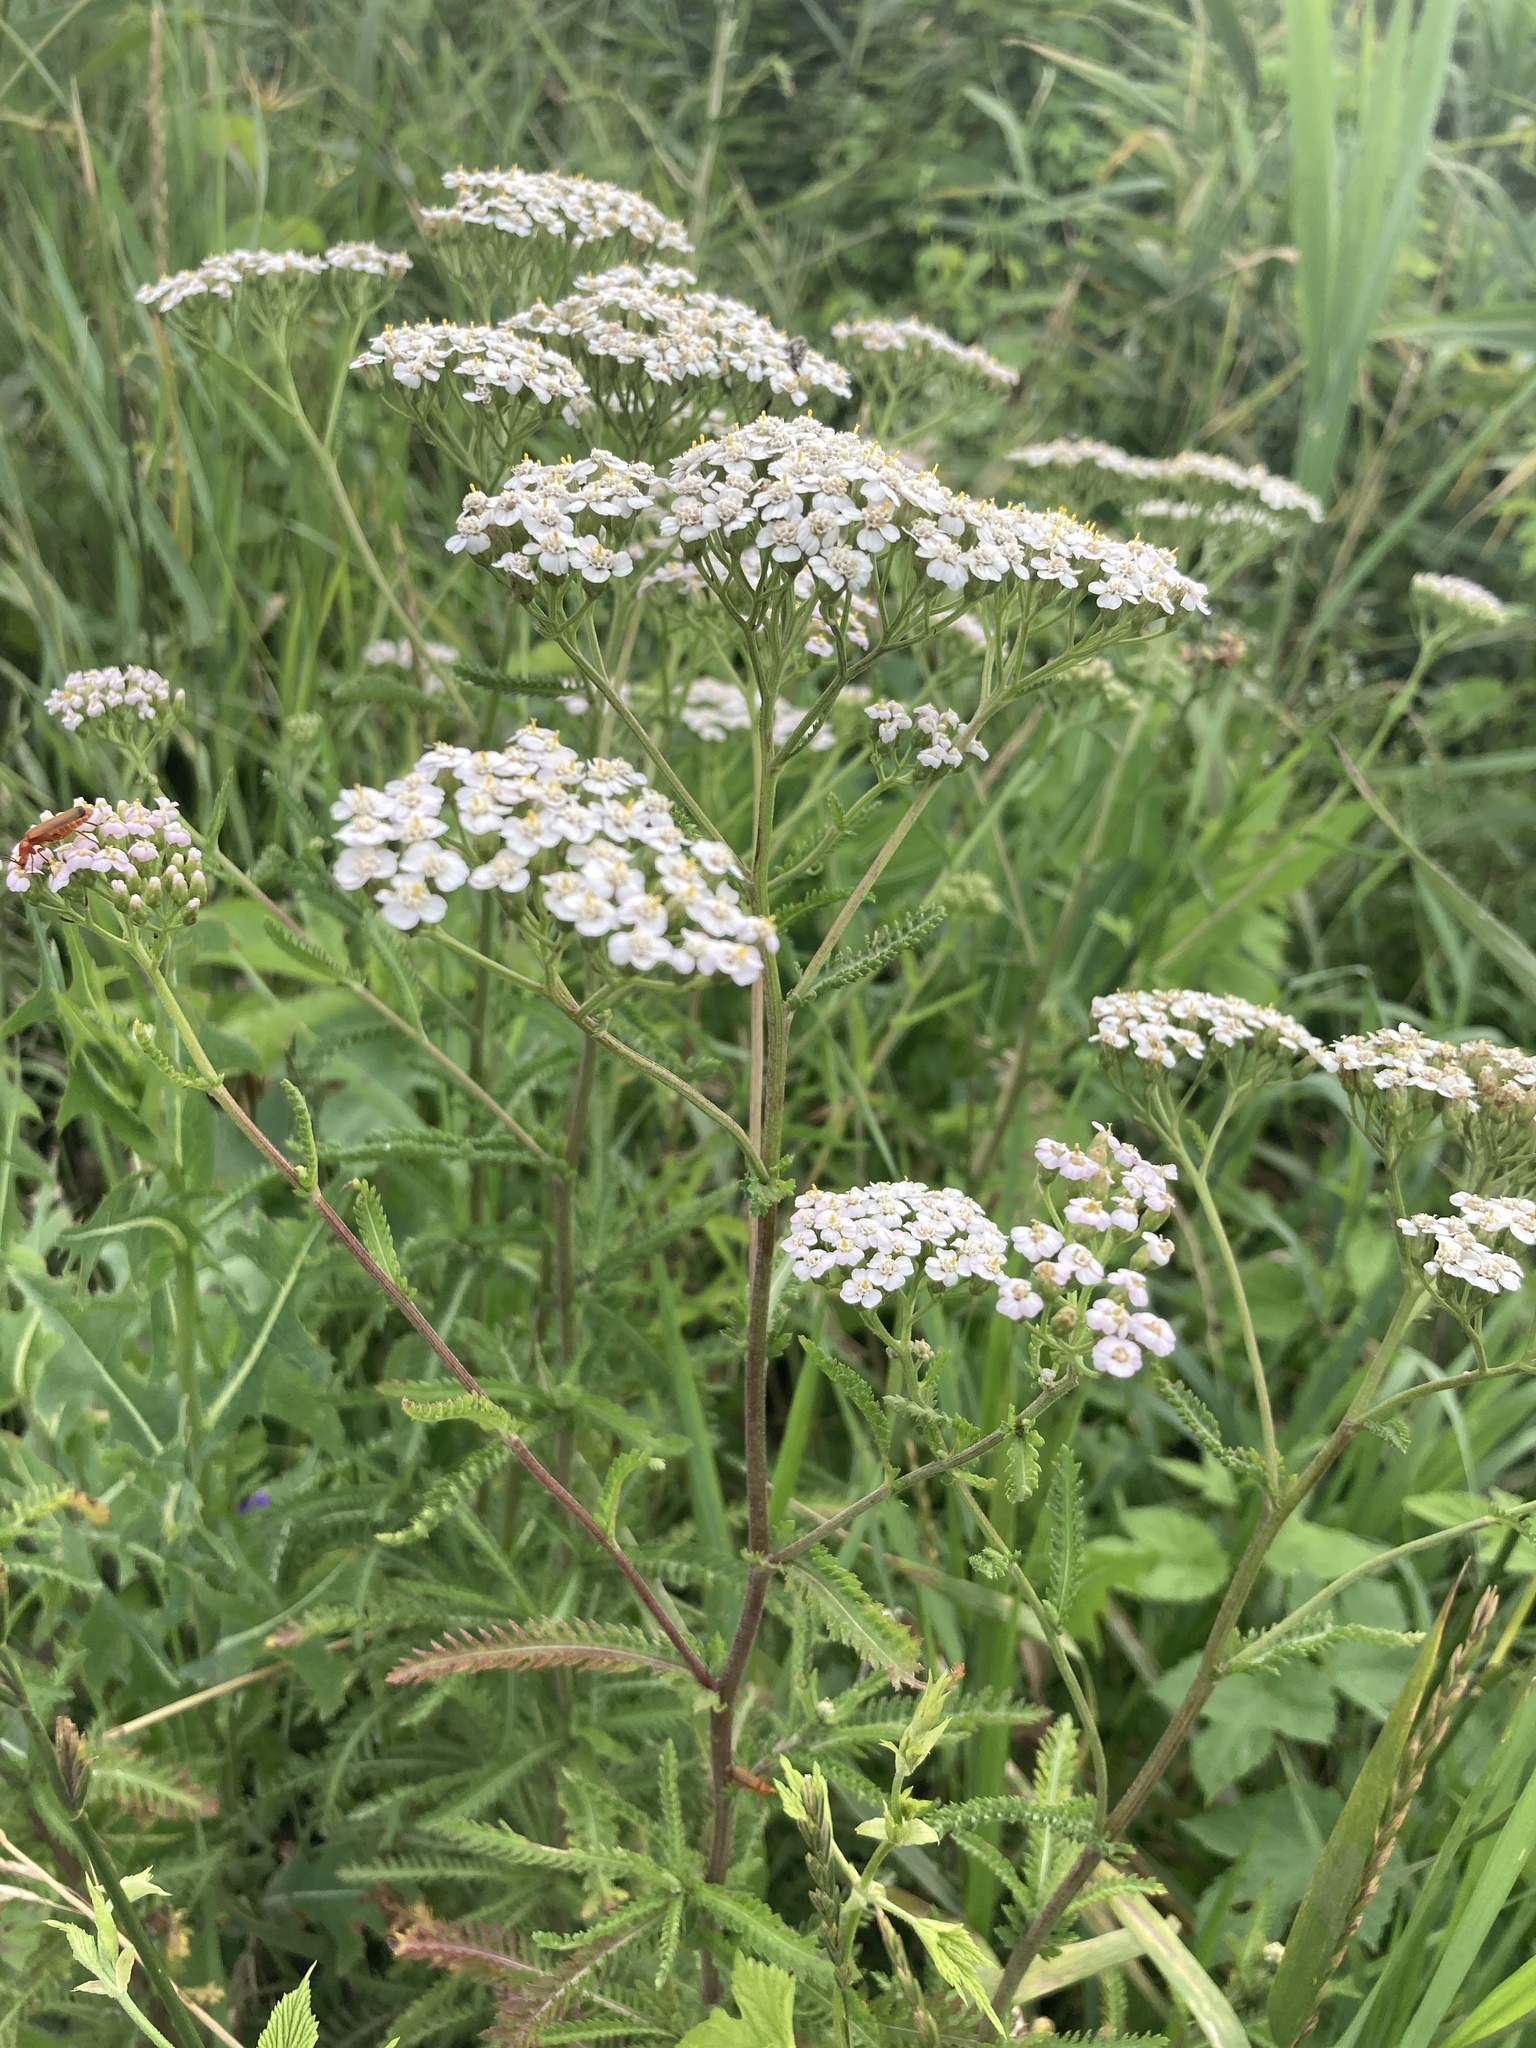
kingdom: Plantae
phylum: Tracheophyta
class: Magnoliopsida
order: Asterales
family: Asteraceae
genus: Achillea
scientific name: Achillea millefolium
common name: Yarrow
